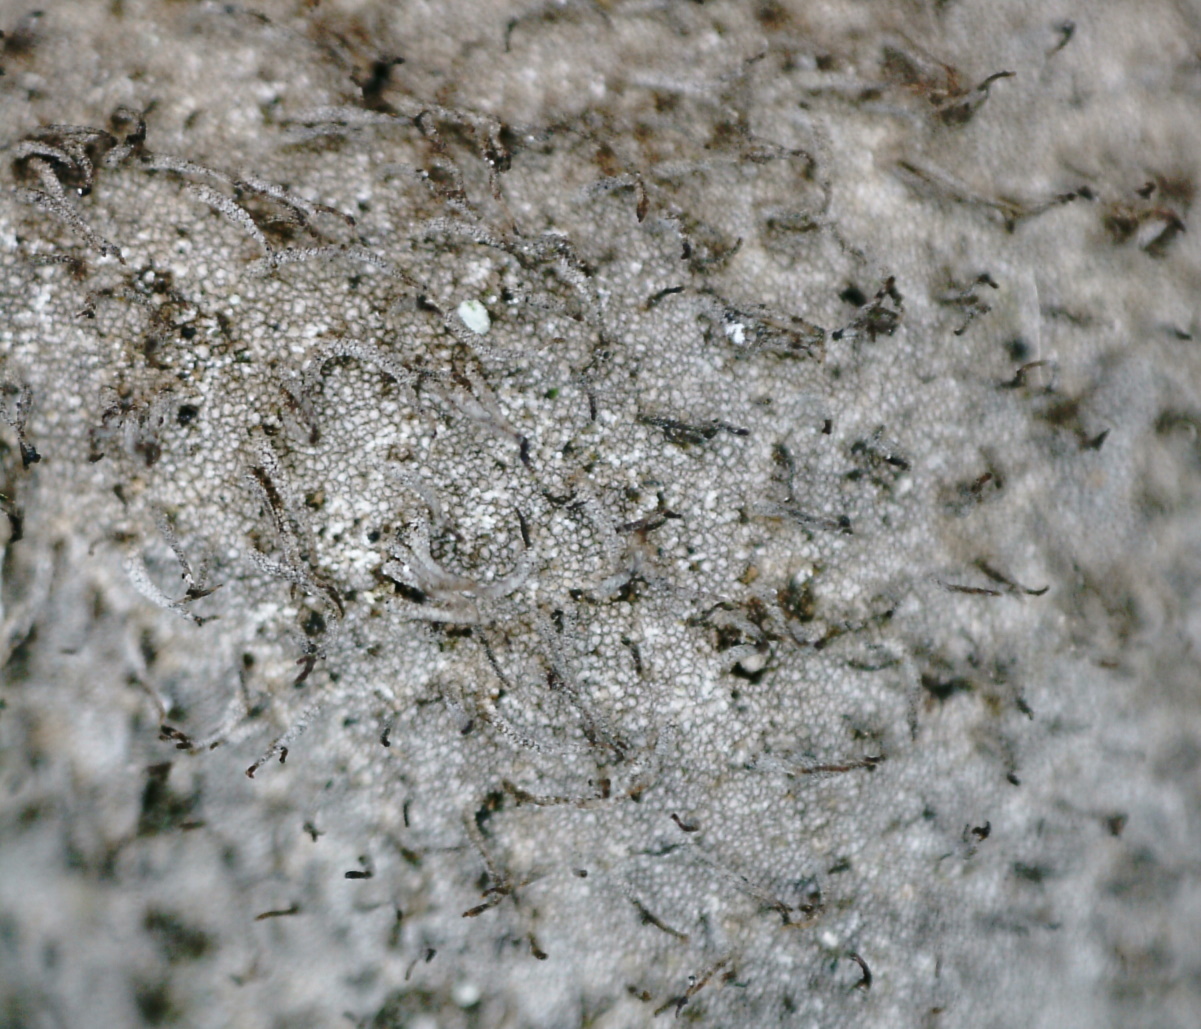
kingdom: Fungi
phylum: Ascomycota
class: Lecanoromycetes
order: Umbilicariales
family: Umbilicariaceae
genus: Umbilicaria
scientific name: Umbilicaria hirsuta
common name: Granulating rocktripe lichen
